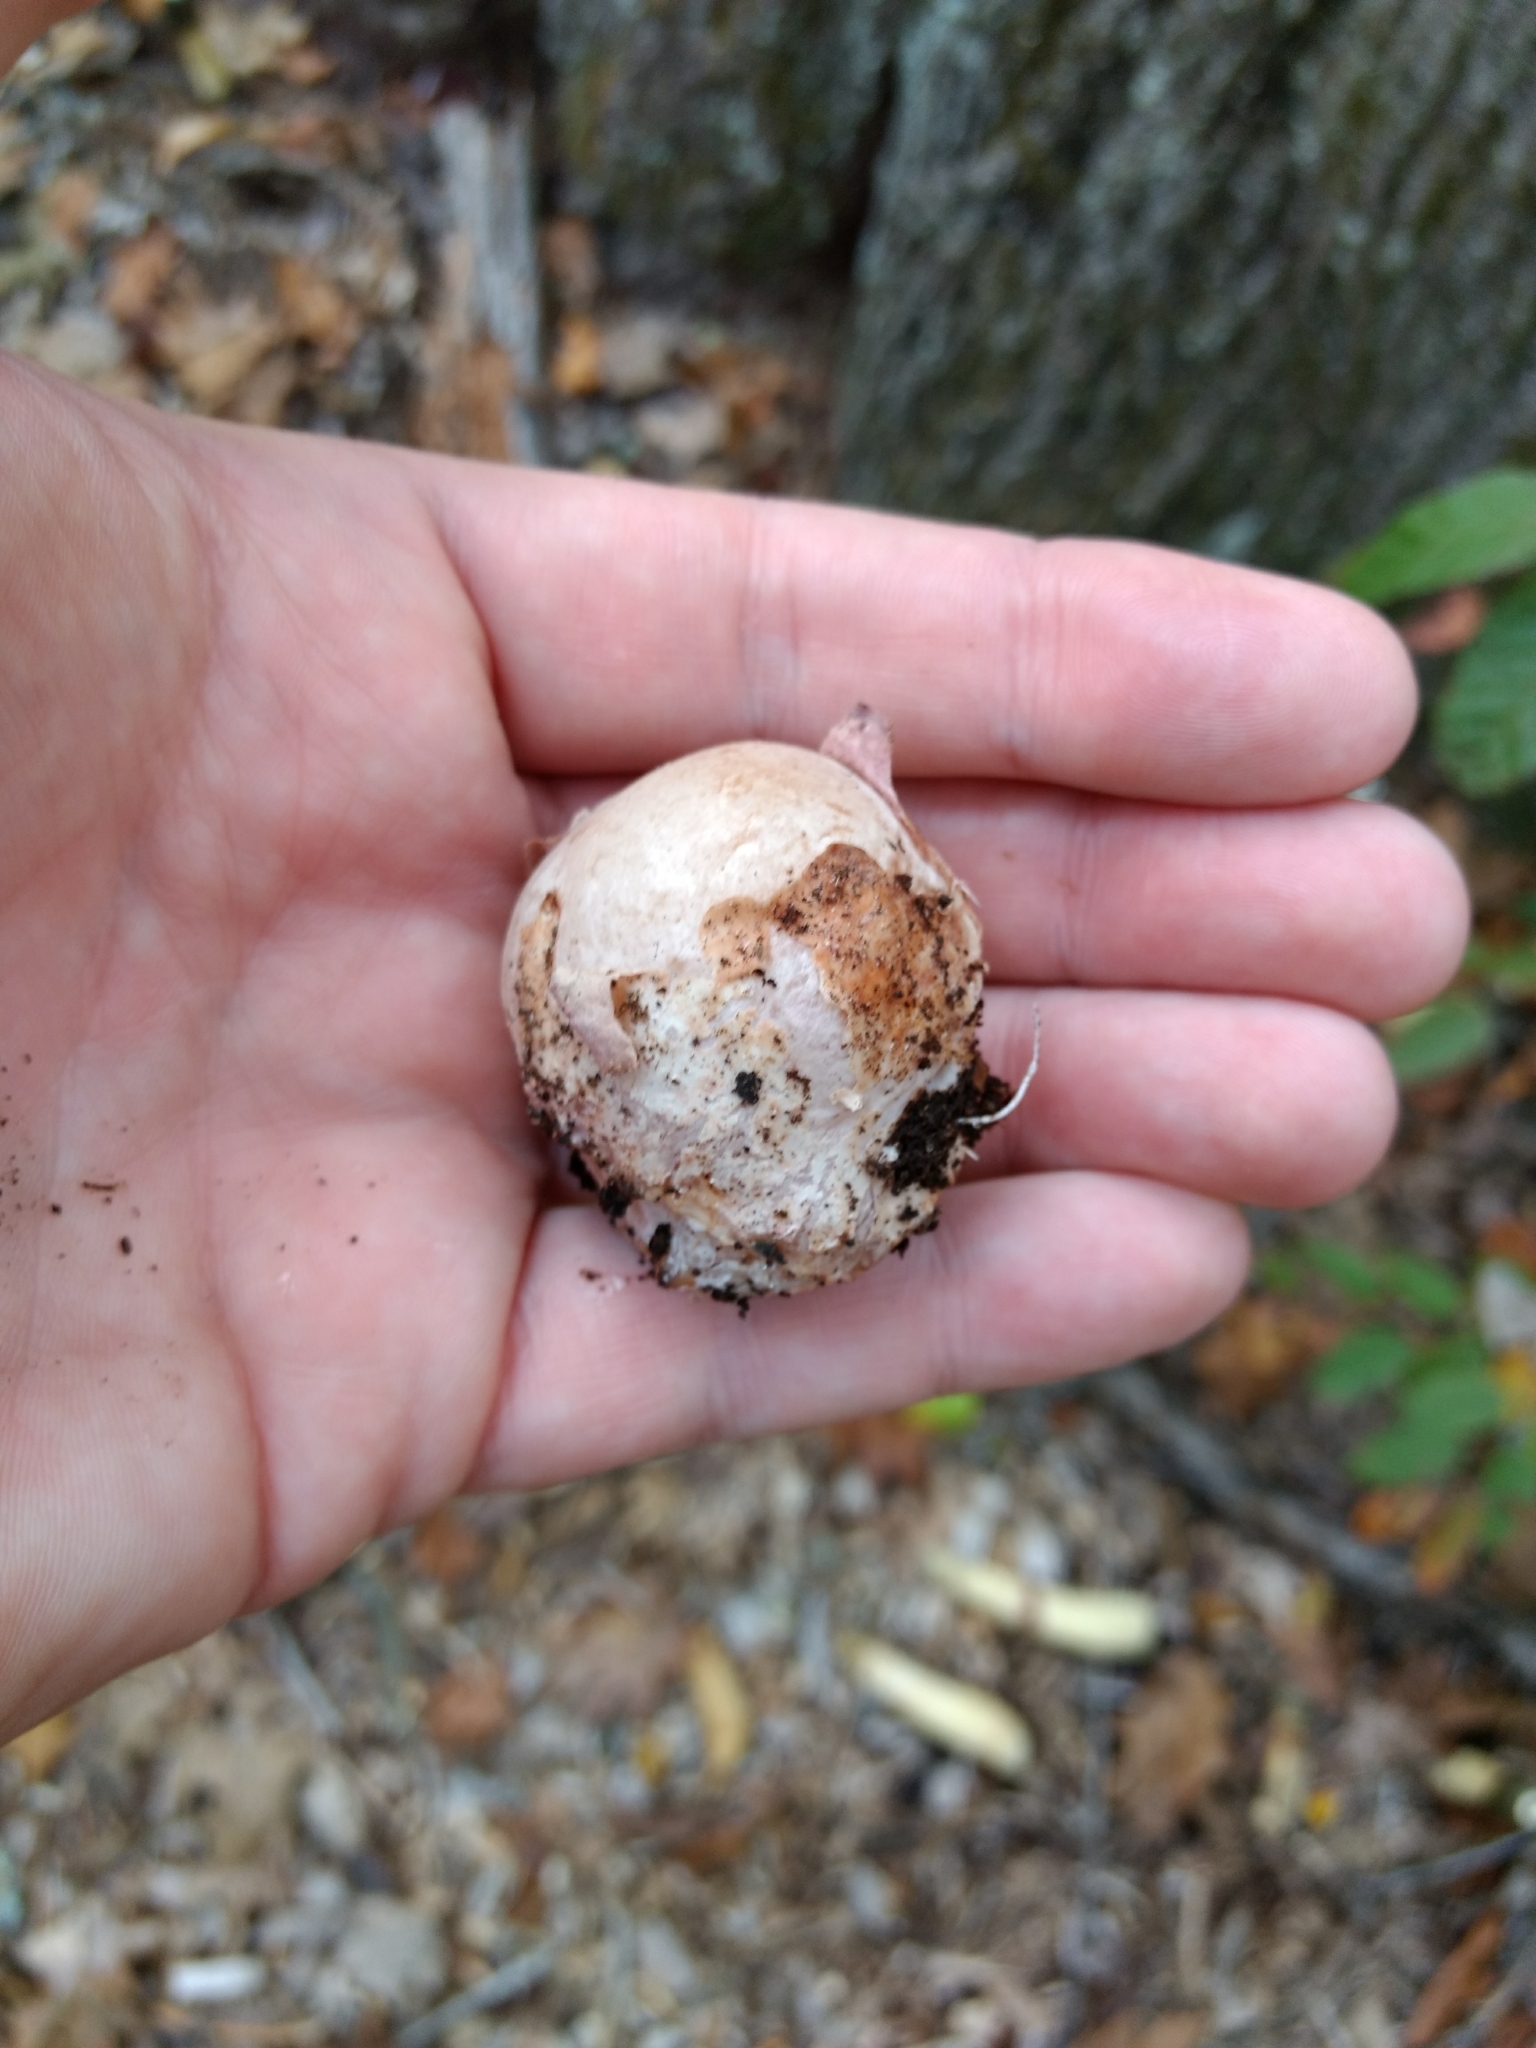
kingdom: Fungi
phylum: Basidiomycota
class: Agaricomycetes
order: Phallales
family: Phallaceae
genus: Phallus
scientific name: Phallus ravenelii
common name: Ravenel's stinkhorn
